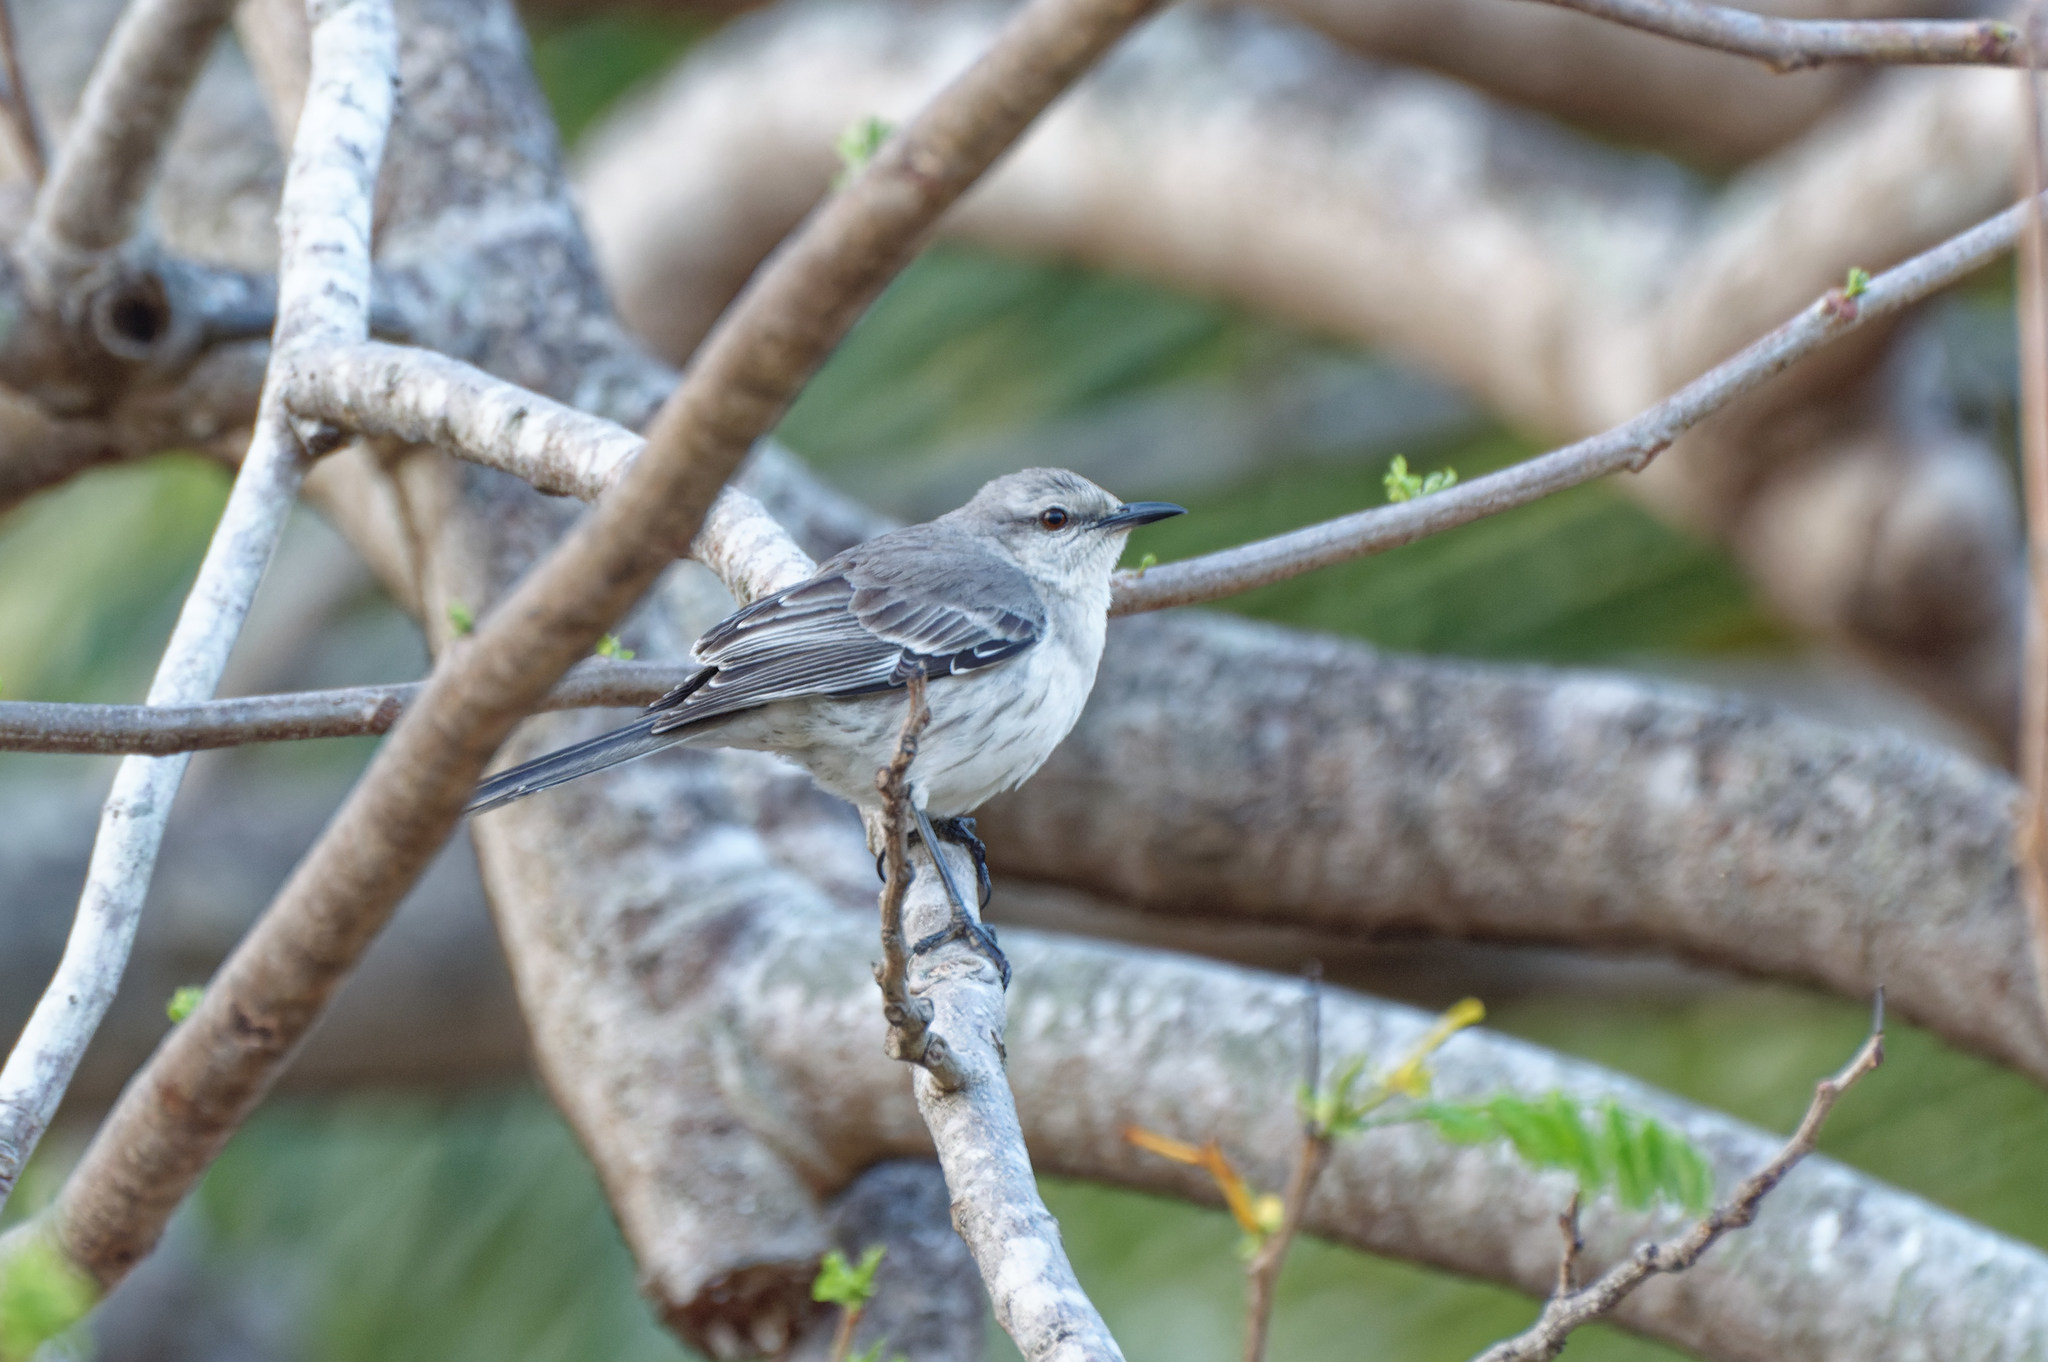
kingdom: Animalia
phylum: Chordata
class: Aves
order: Passeriformes
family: Mimidae
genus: Mimus
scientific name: Mimus gilvus
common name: Tropical mockingbird
